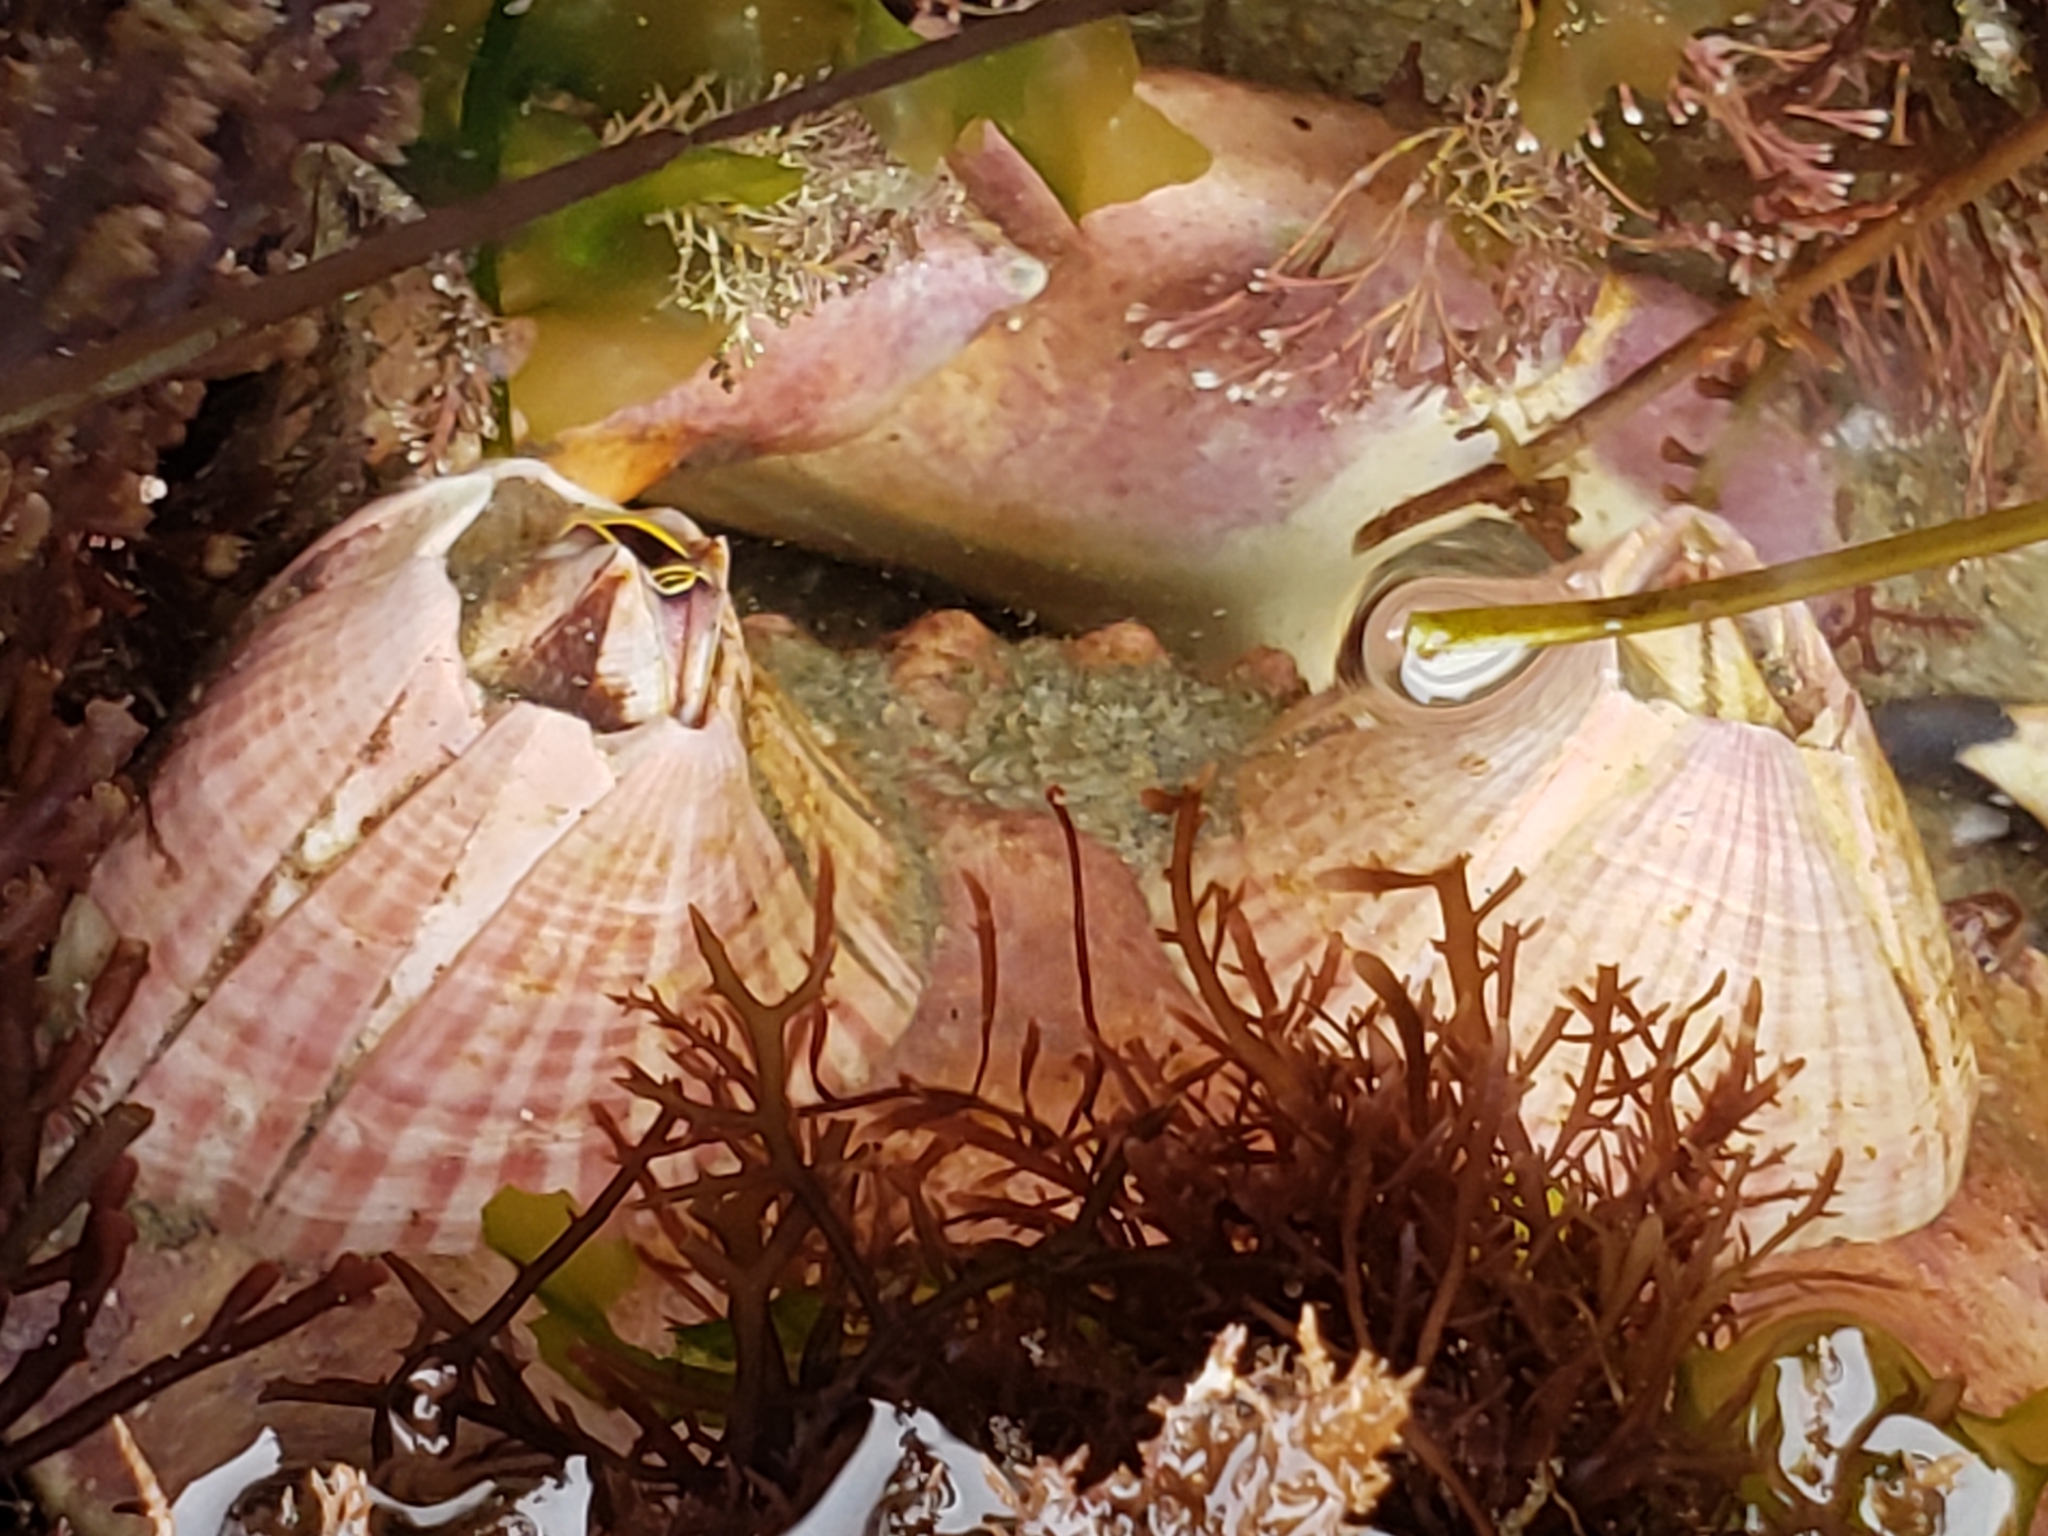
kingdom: Animalia
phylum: Arthropoda
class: Maxillopoda
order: Sessilia
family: Balanidae
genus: Paraconcavus
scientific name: Paraconcavus pacificus
